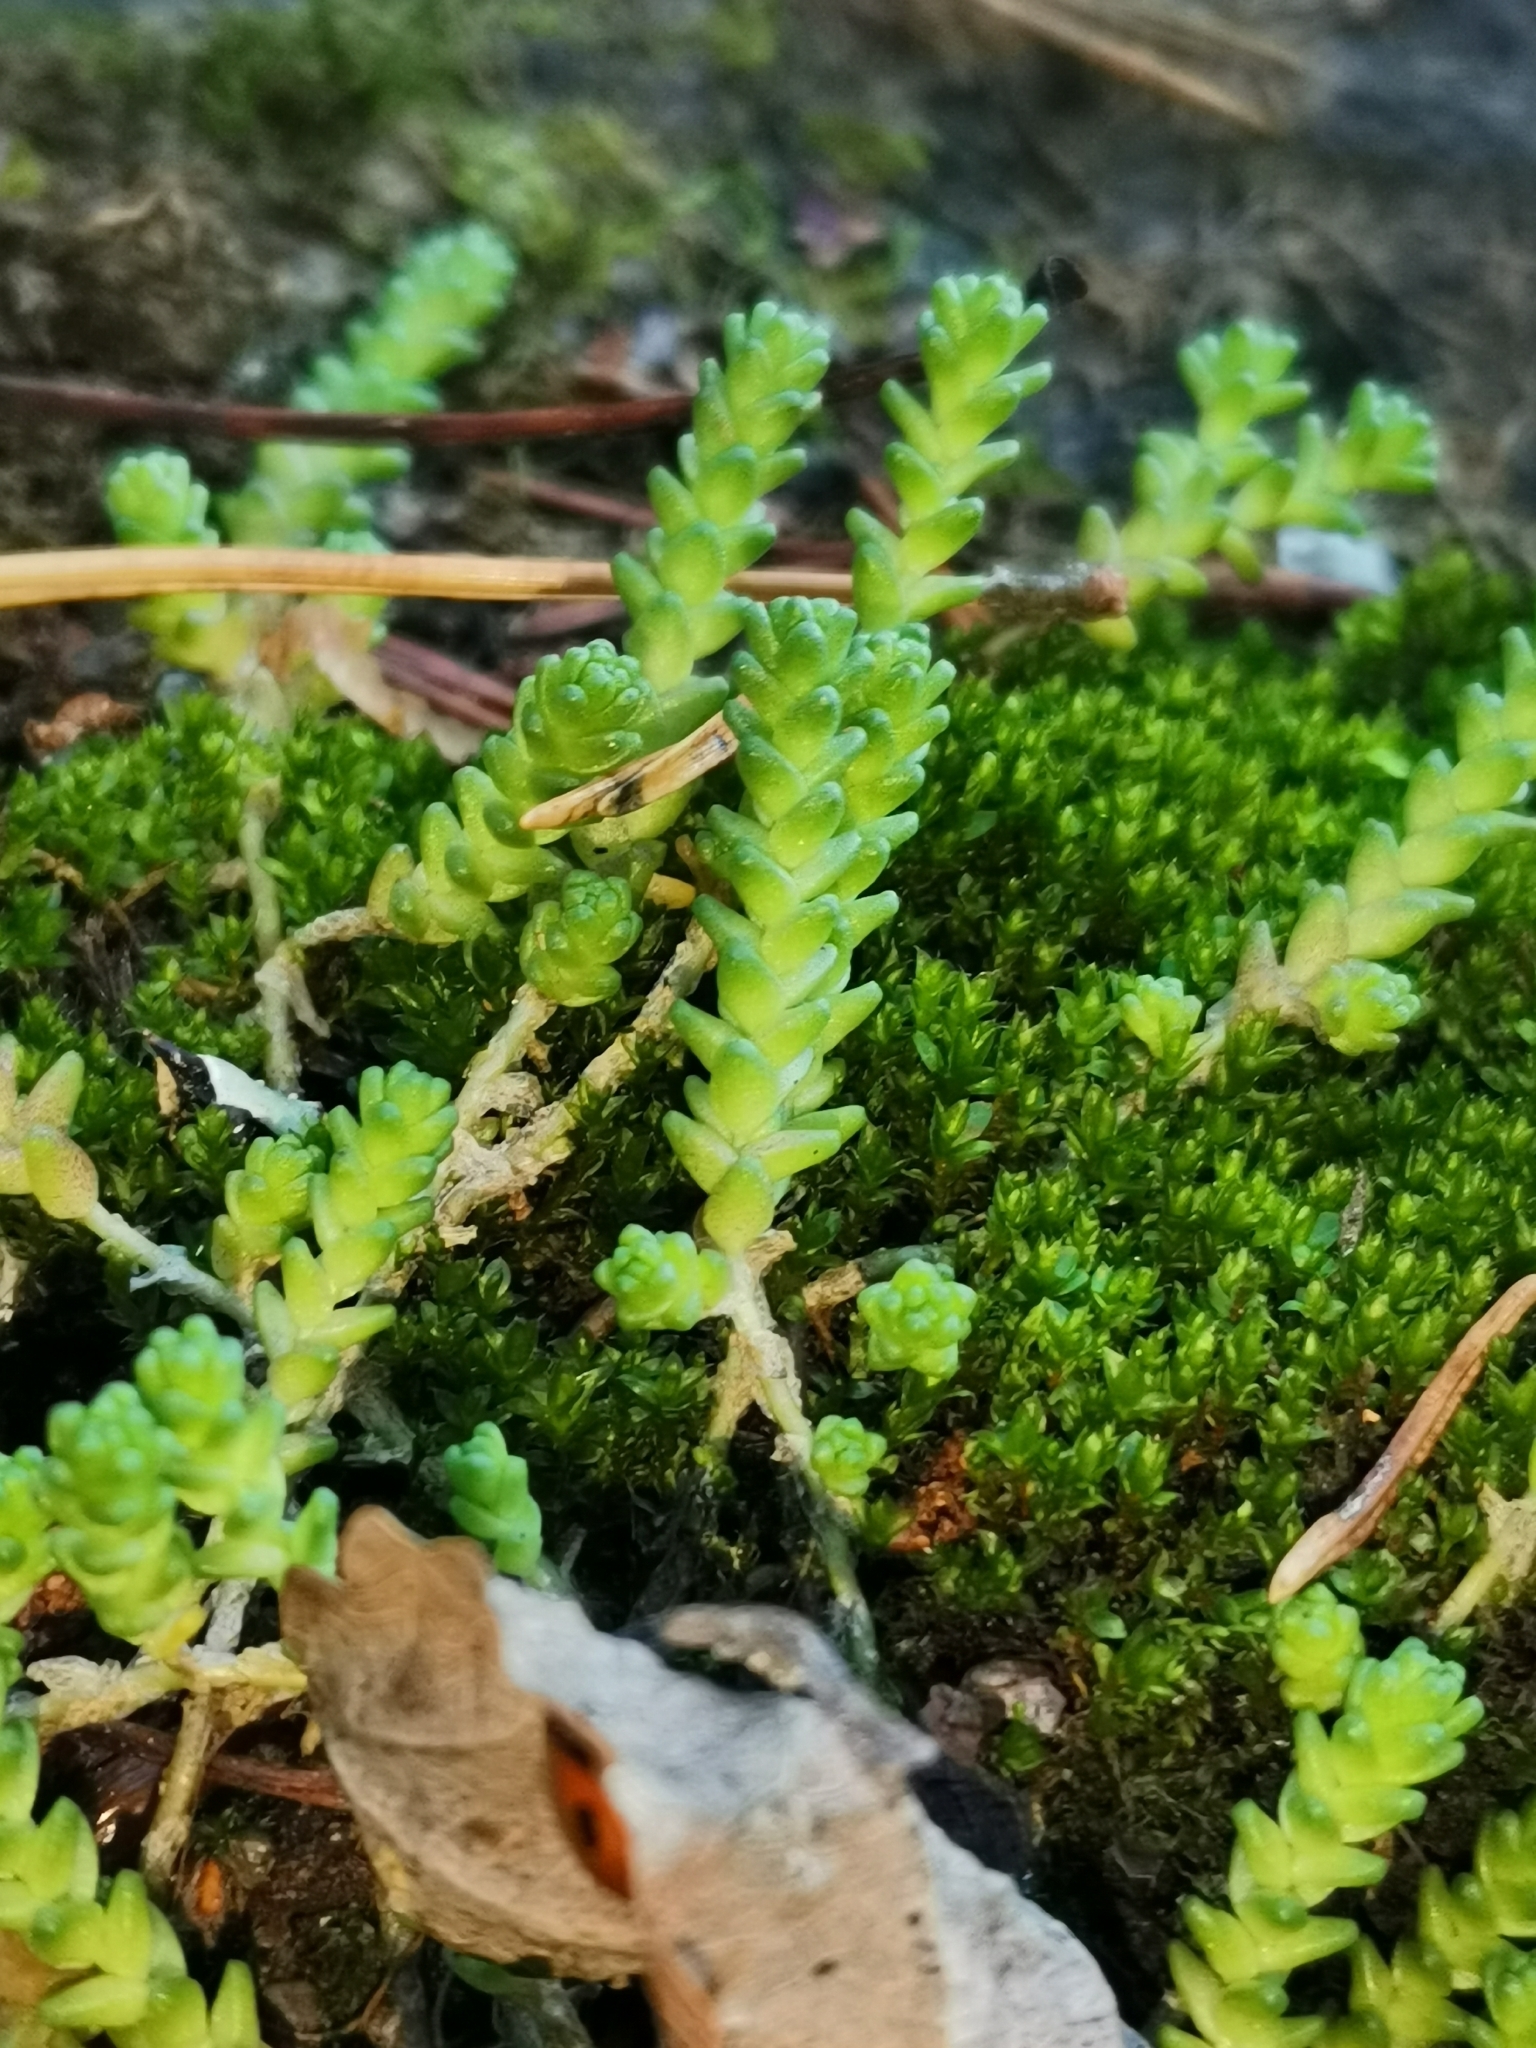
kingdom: Plantae
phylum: Tracheophyta
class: Magnoliopsida
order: Saxifragales
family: Crassulaceae
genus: Sedum
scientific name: Sedum acre
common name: Biting stonecrop
